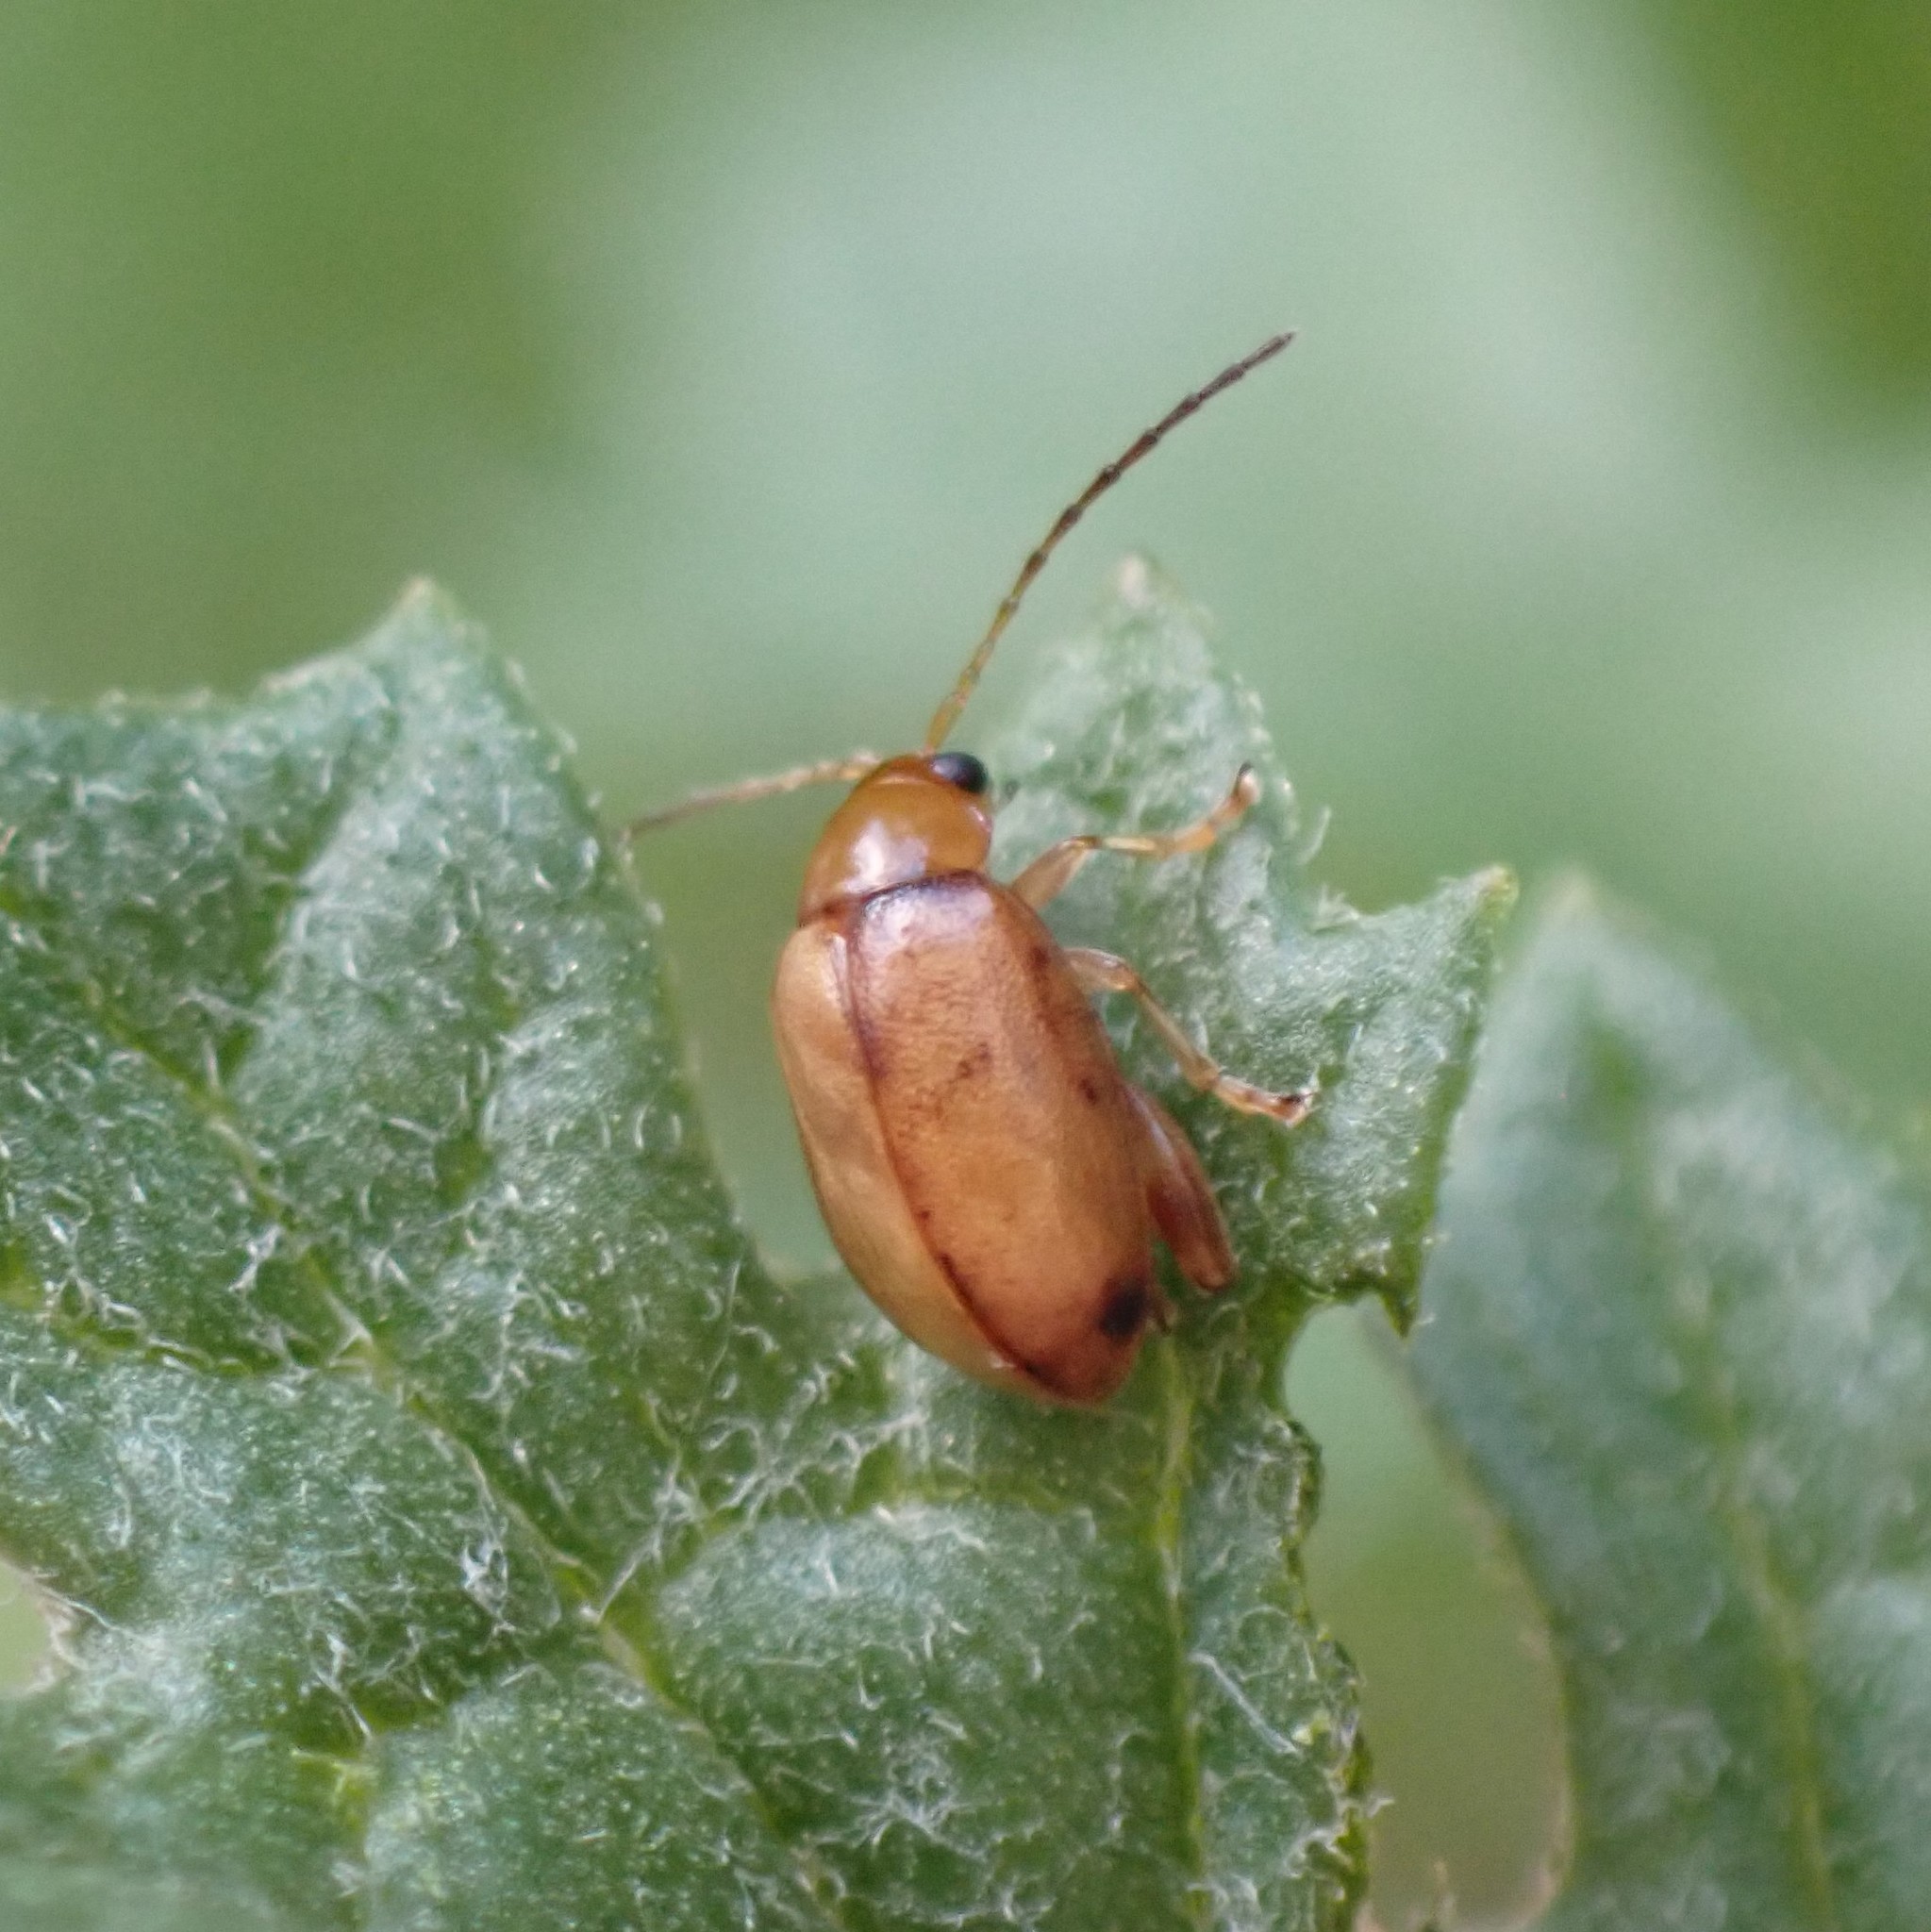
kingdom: Animalia
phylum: Arthropoda
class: Insecta
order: Coleoptera
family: Chrysomelidae
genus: Longitarsus
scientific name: Longitarsus jacobaeae
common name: Tansy ragwort flea beetle
